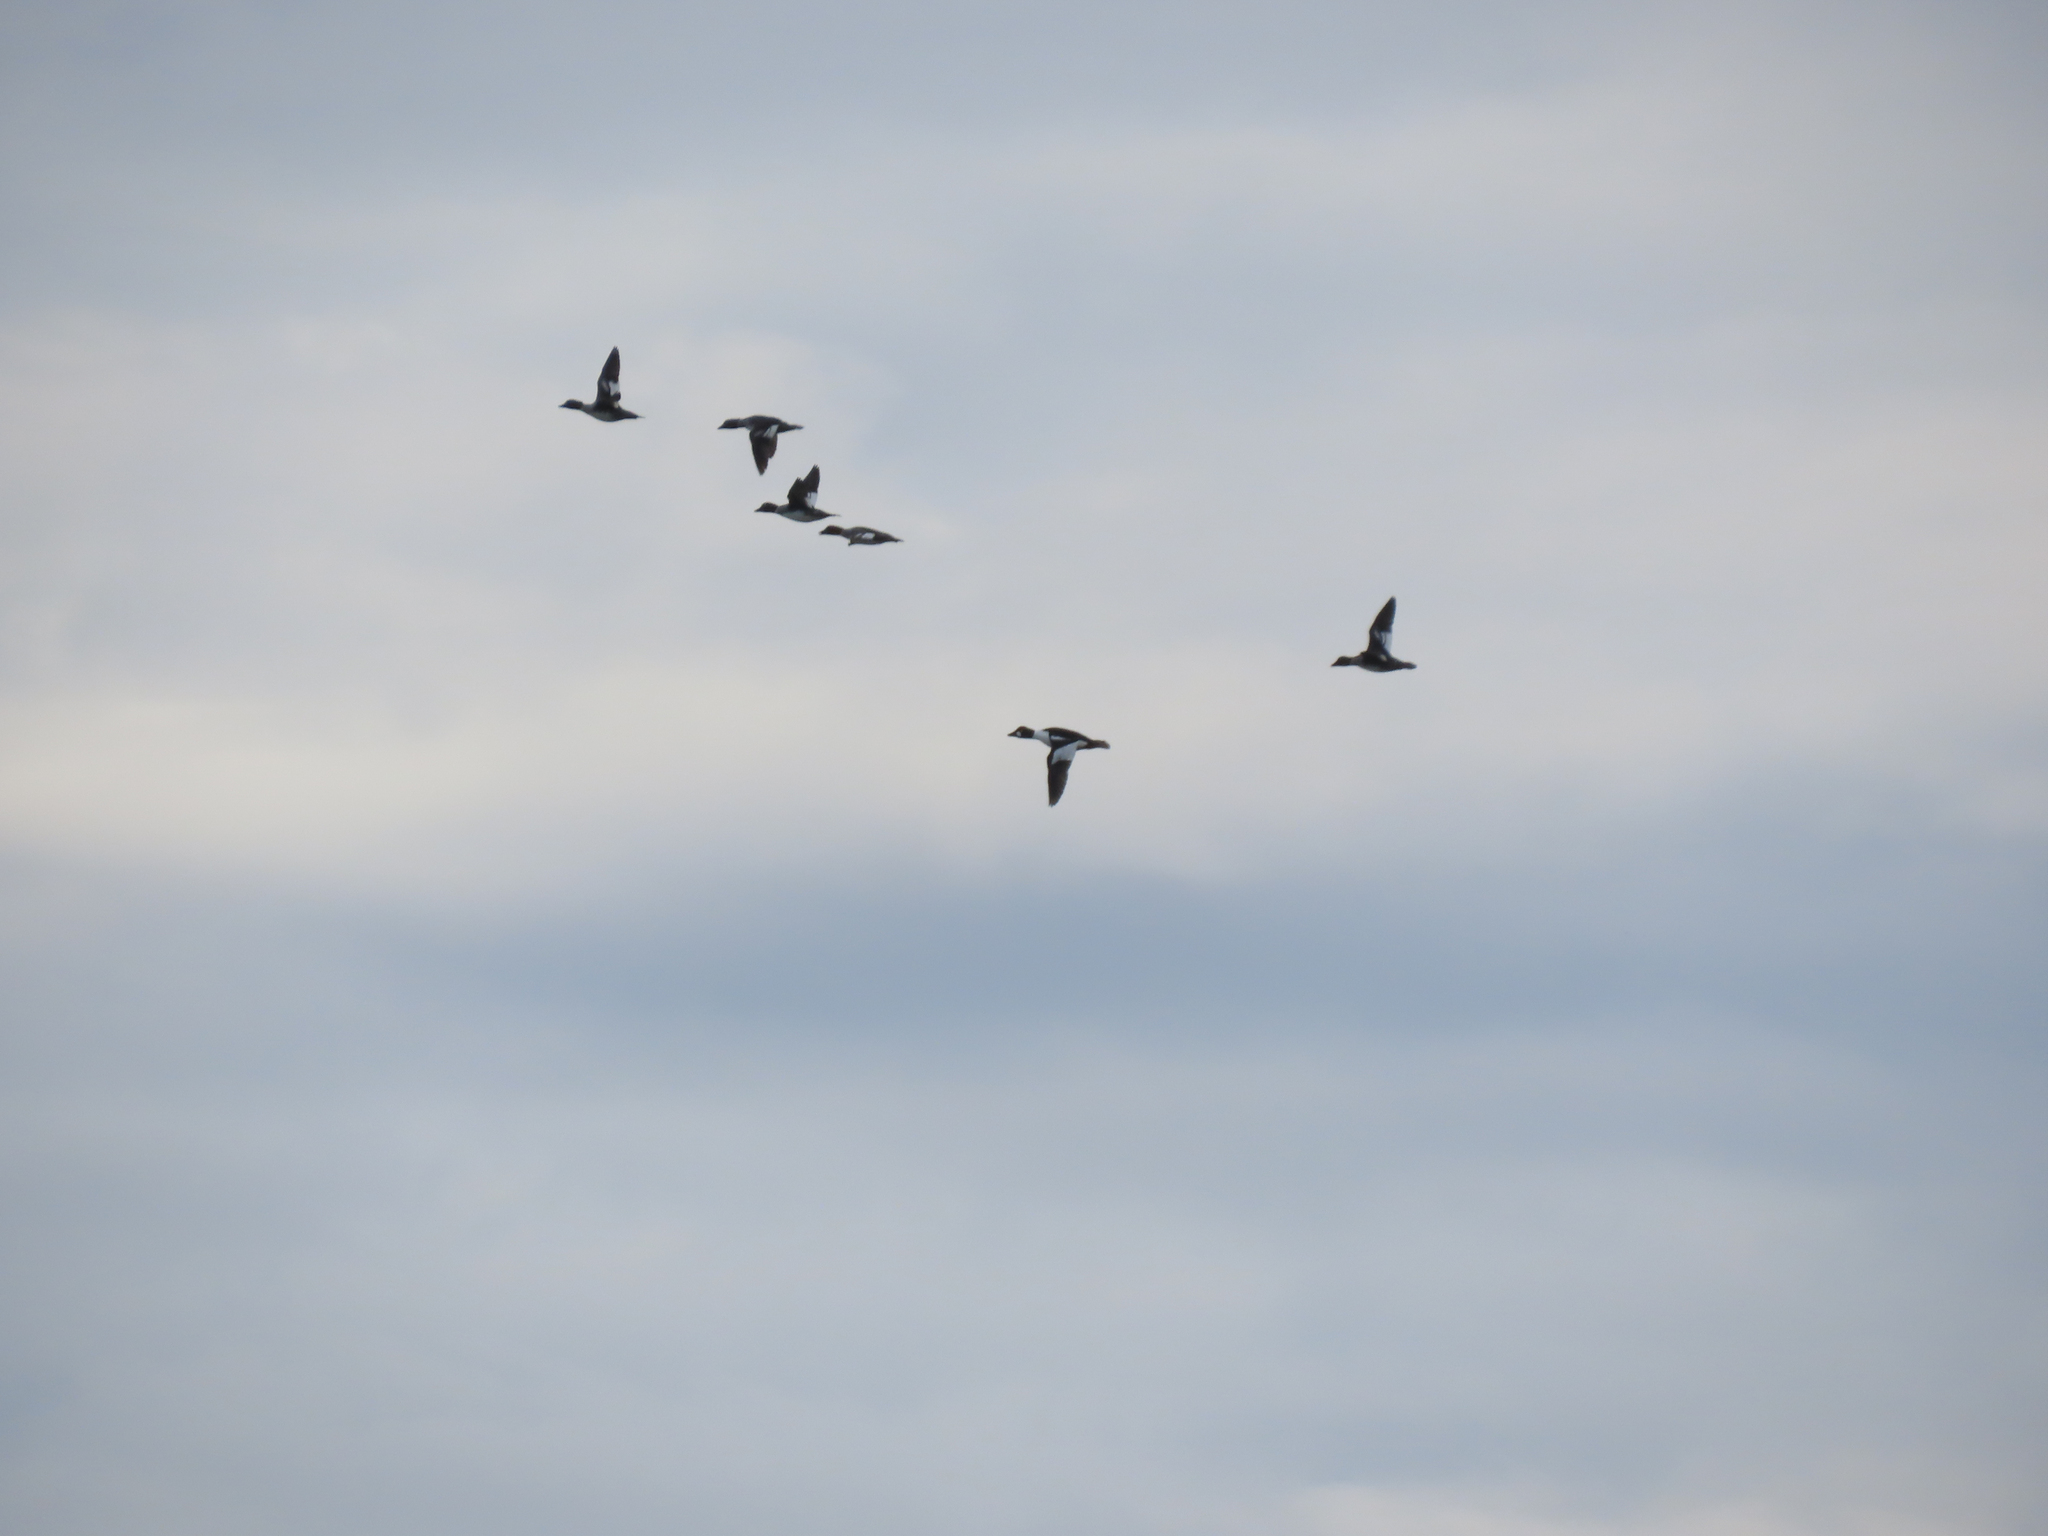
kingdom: Animalia
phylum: Chordata
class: Aves
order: Anseriformes
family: Anatidae
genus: Bucephala
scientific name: Bucephala clangula
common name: Common goldeneye
